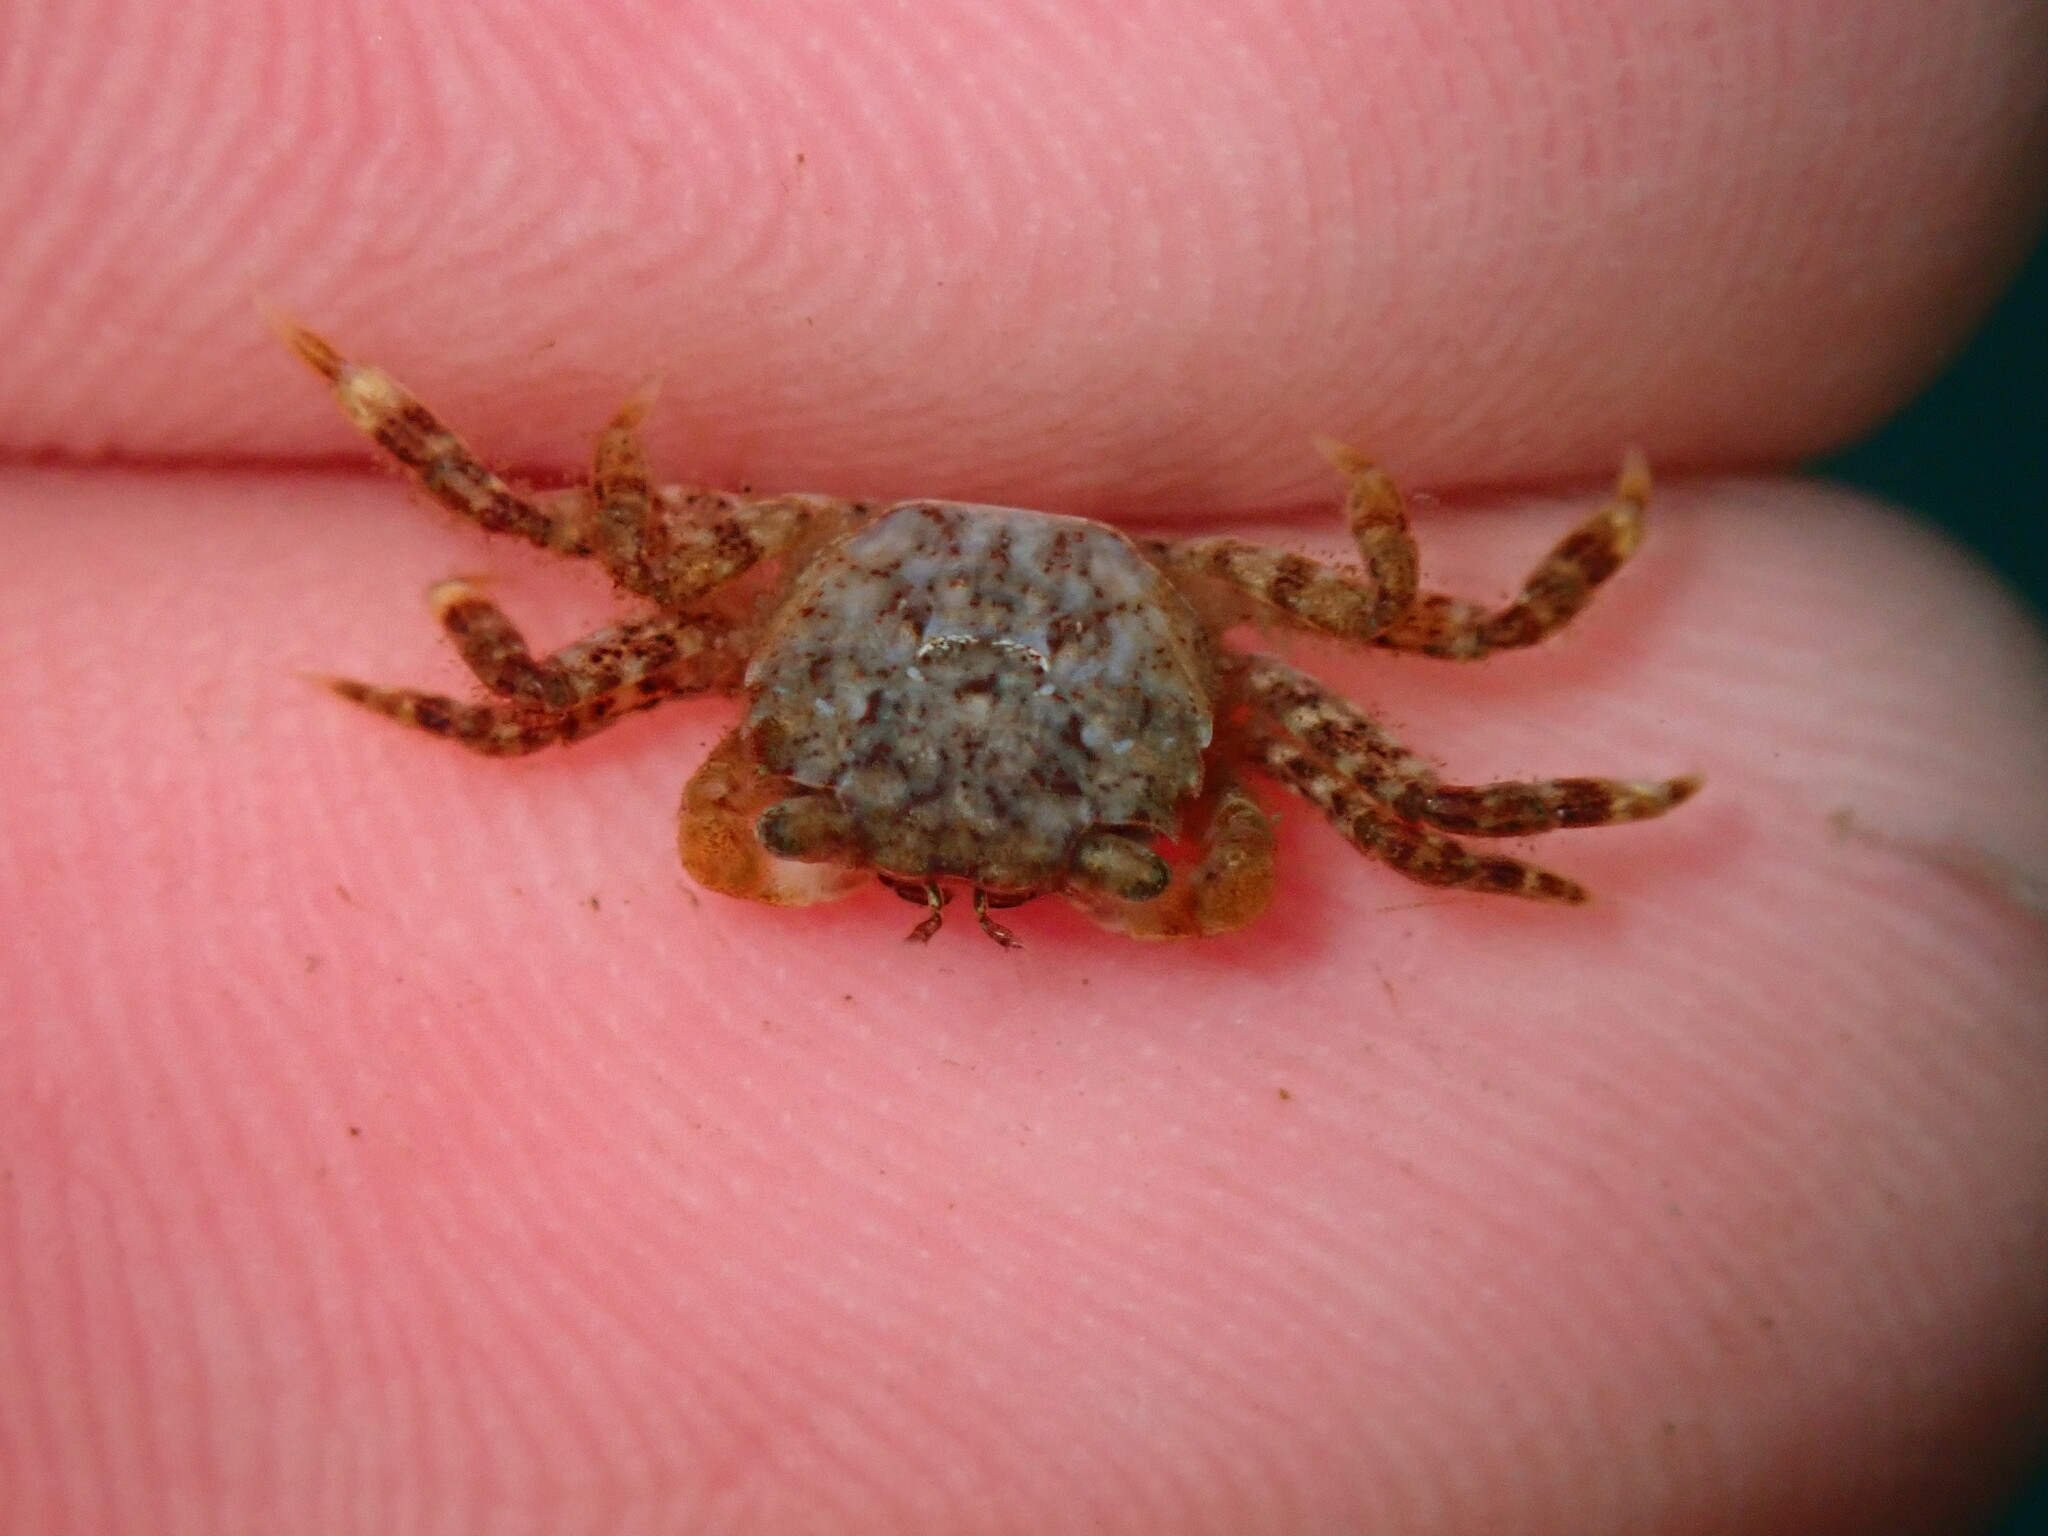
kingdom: Animalia
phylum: Arthropoda
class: Malacostraca
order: Decapoda
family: Varunidae
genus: Hemigrapsus
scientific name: Hemigrapsus oregonensis
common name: Yellow shore crab
